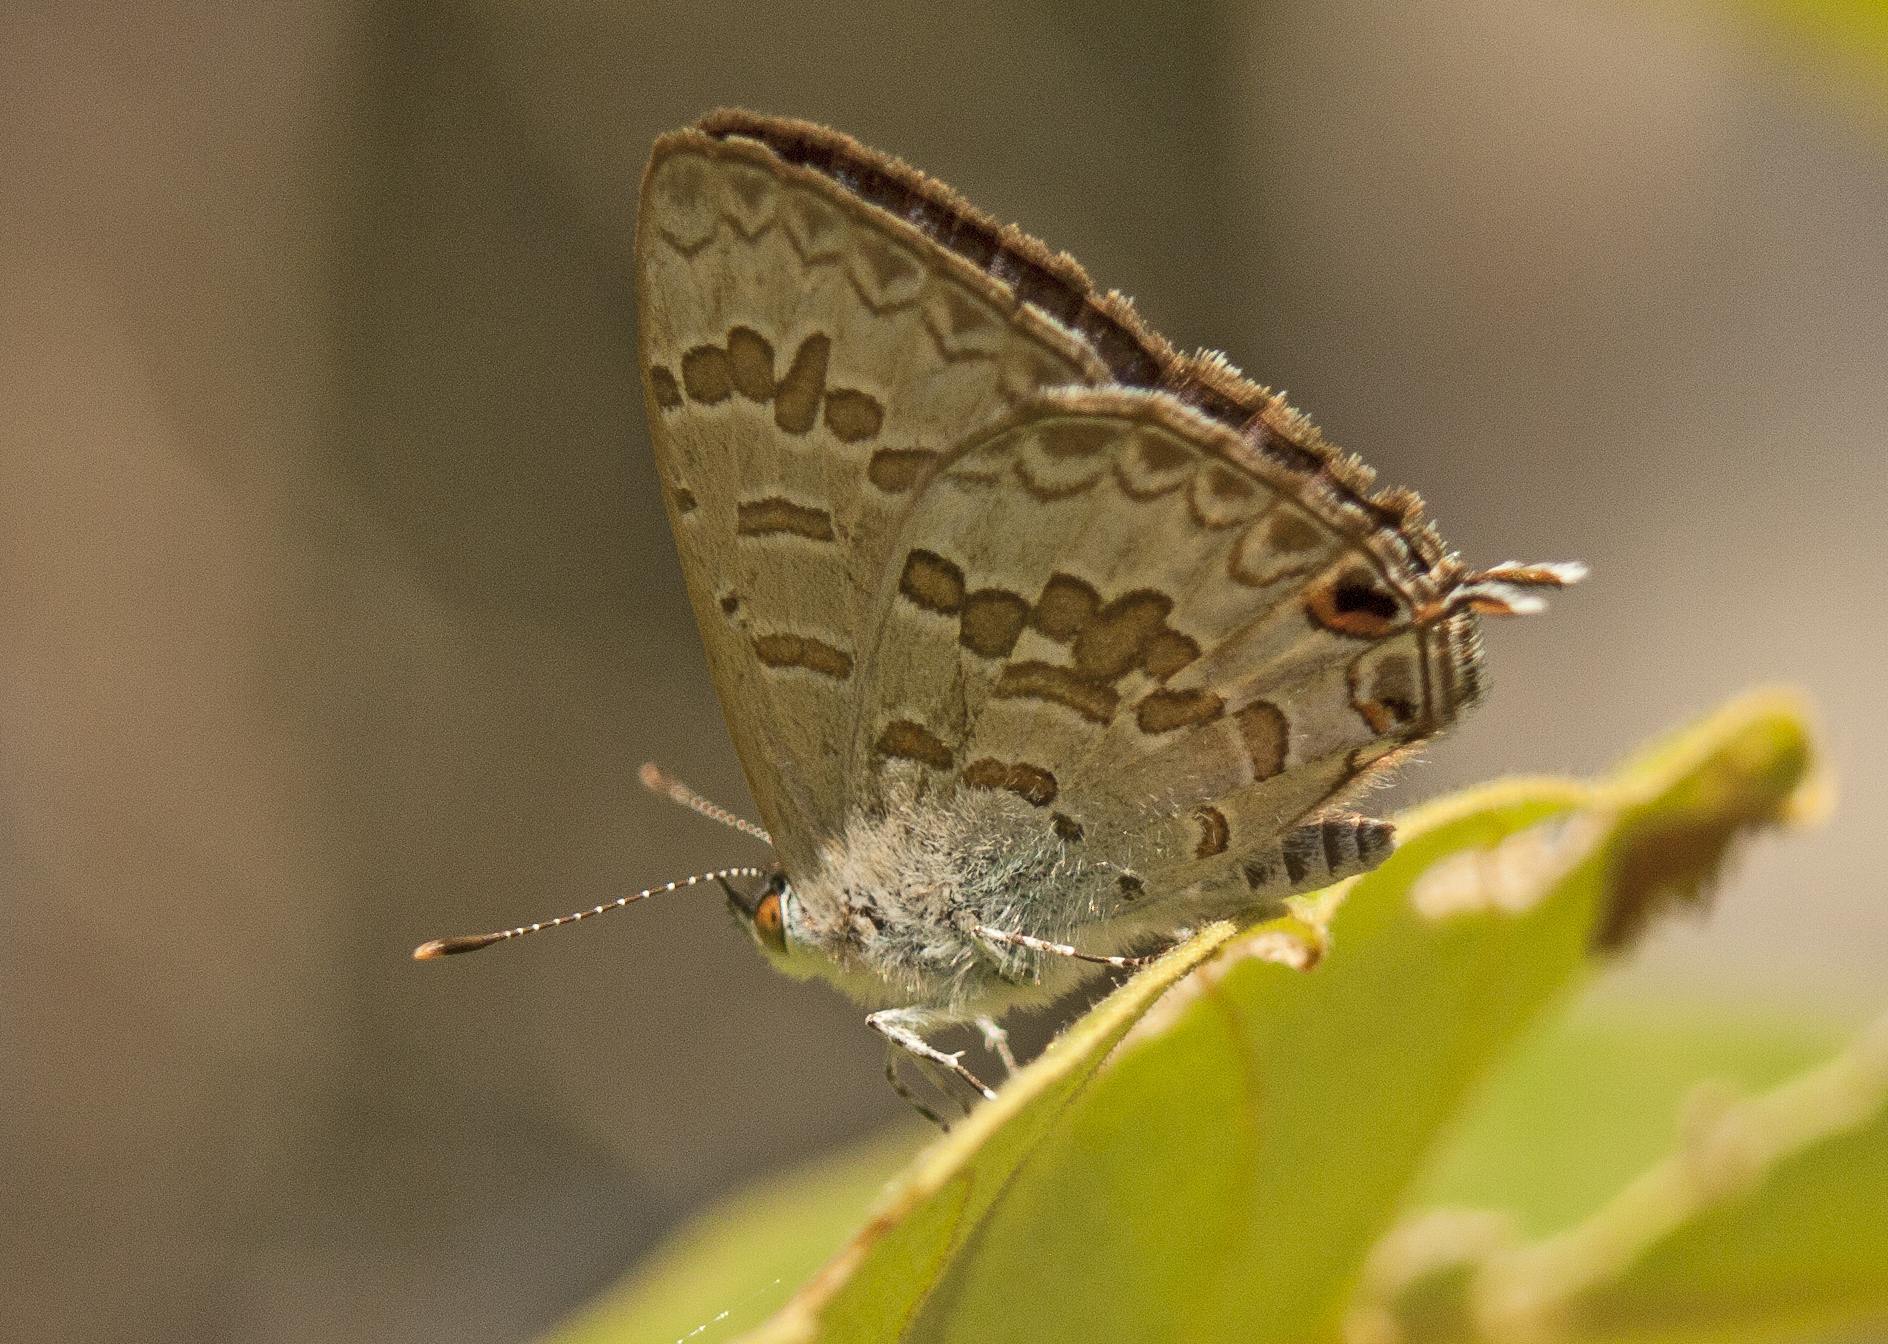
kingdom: Animalia
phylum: Arthropoda
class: Insecta
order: Lepidoptera
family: Lycaenidae
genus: Catopyrops
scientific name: Catopyrops florinda
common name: Speckled line-blue
